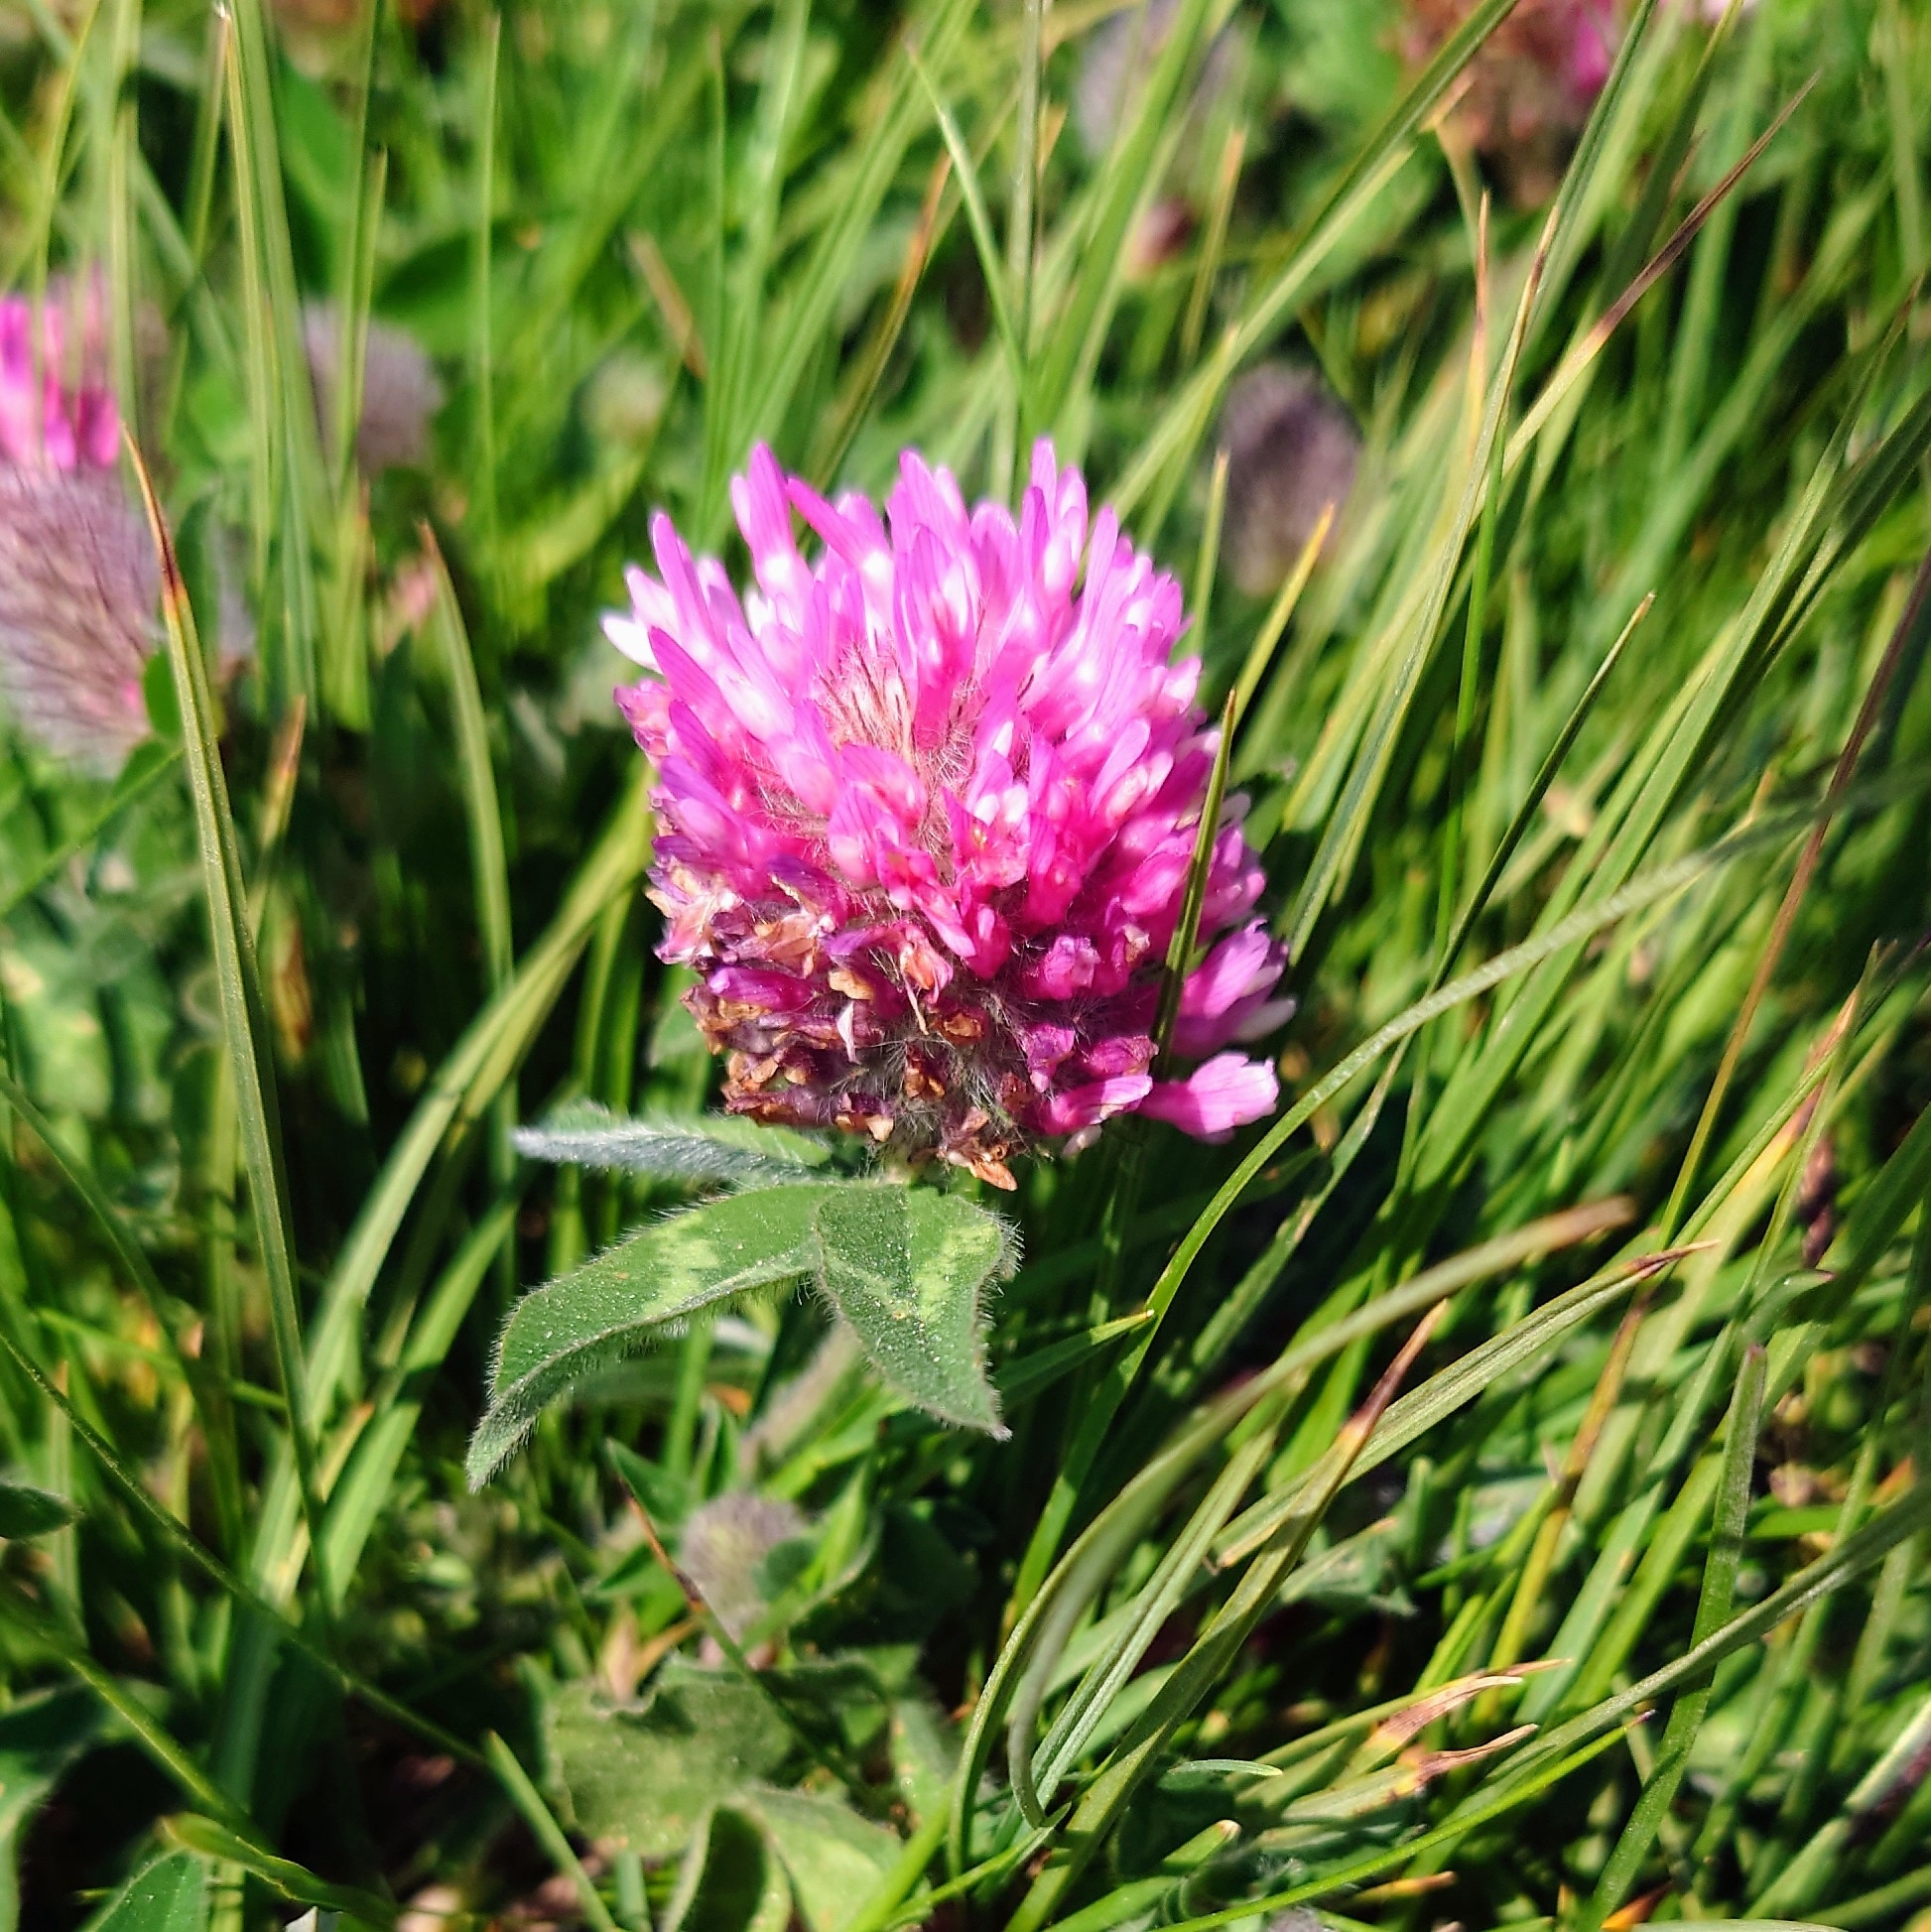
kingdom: Plantae
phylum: Tracheophyta
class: Magnoliopsida
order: Fabales
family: Fabaceae
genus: Trifolium
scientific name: Trifolium pratense
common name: Red clover
